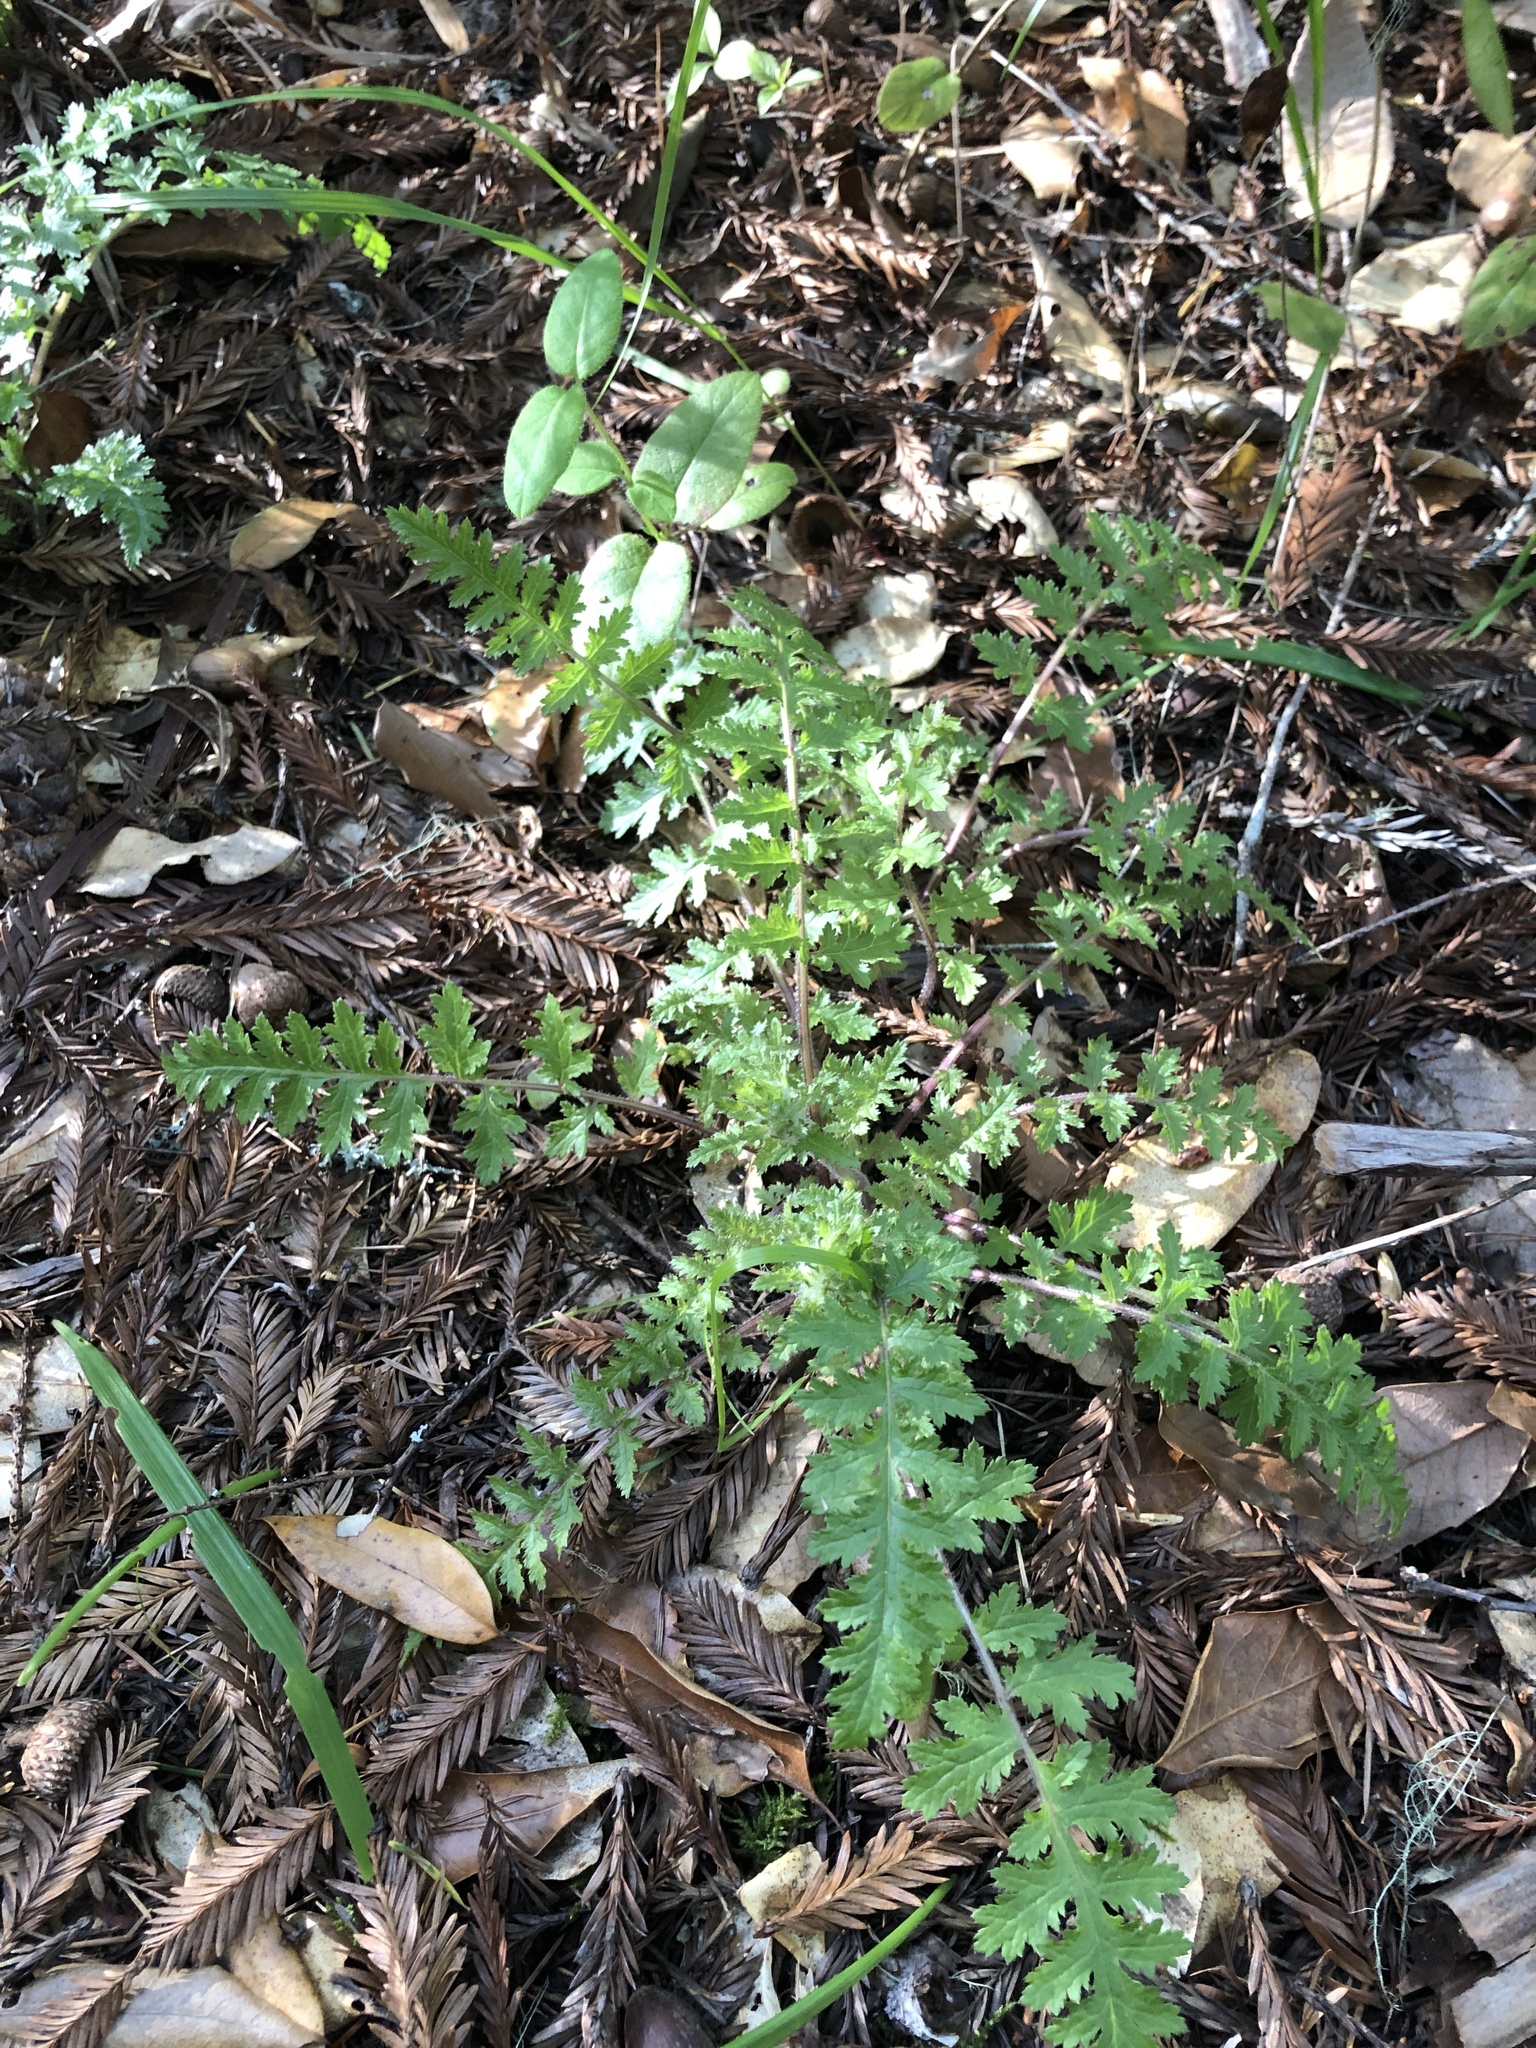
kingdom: Plantae
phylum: Tracheophyta
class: Magnoliopsida
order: Lamiales
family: Orobanchaceae
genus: Pedicularis
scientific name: Pedicularis dudleyi
